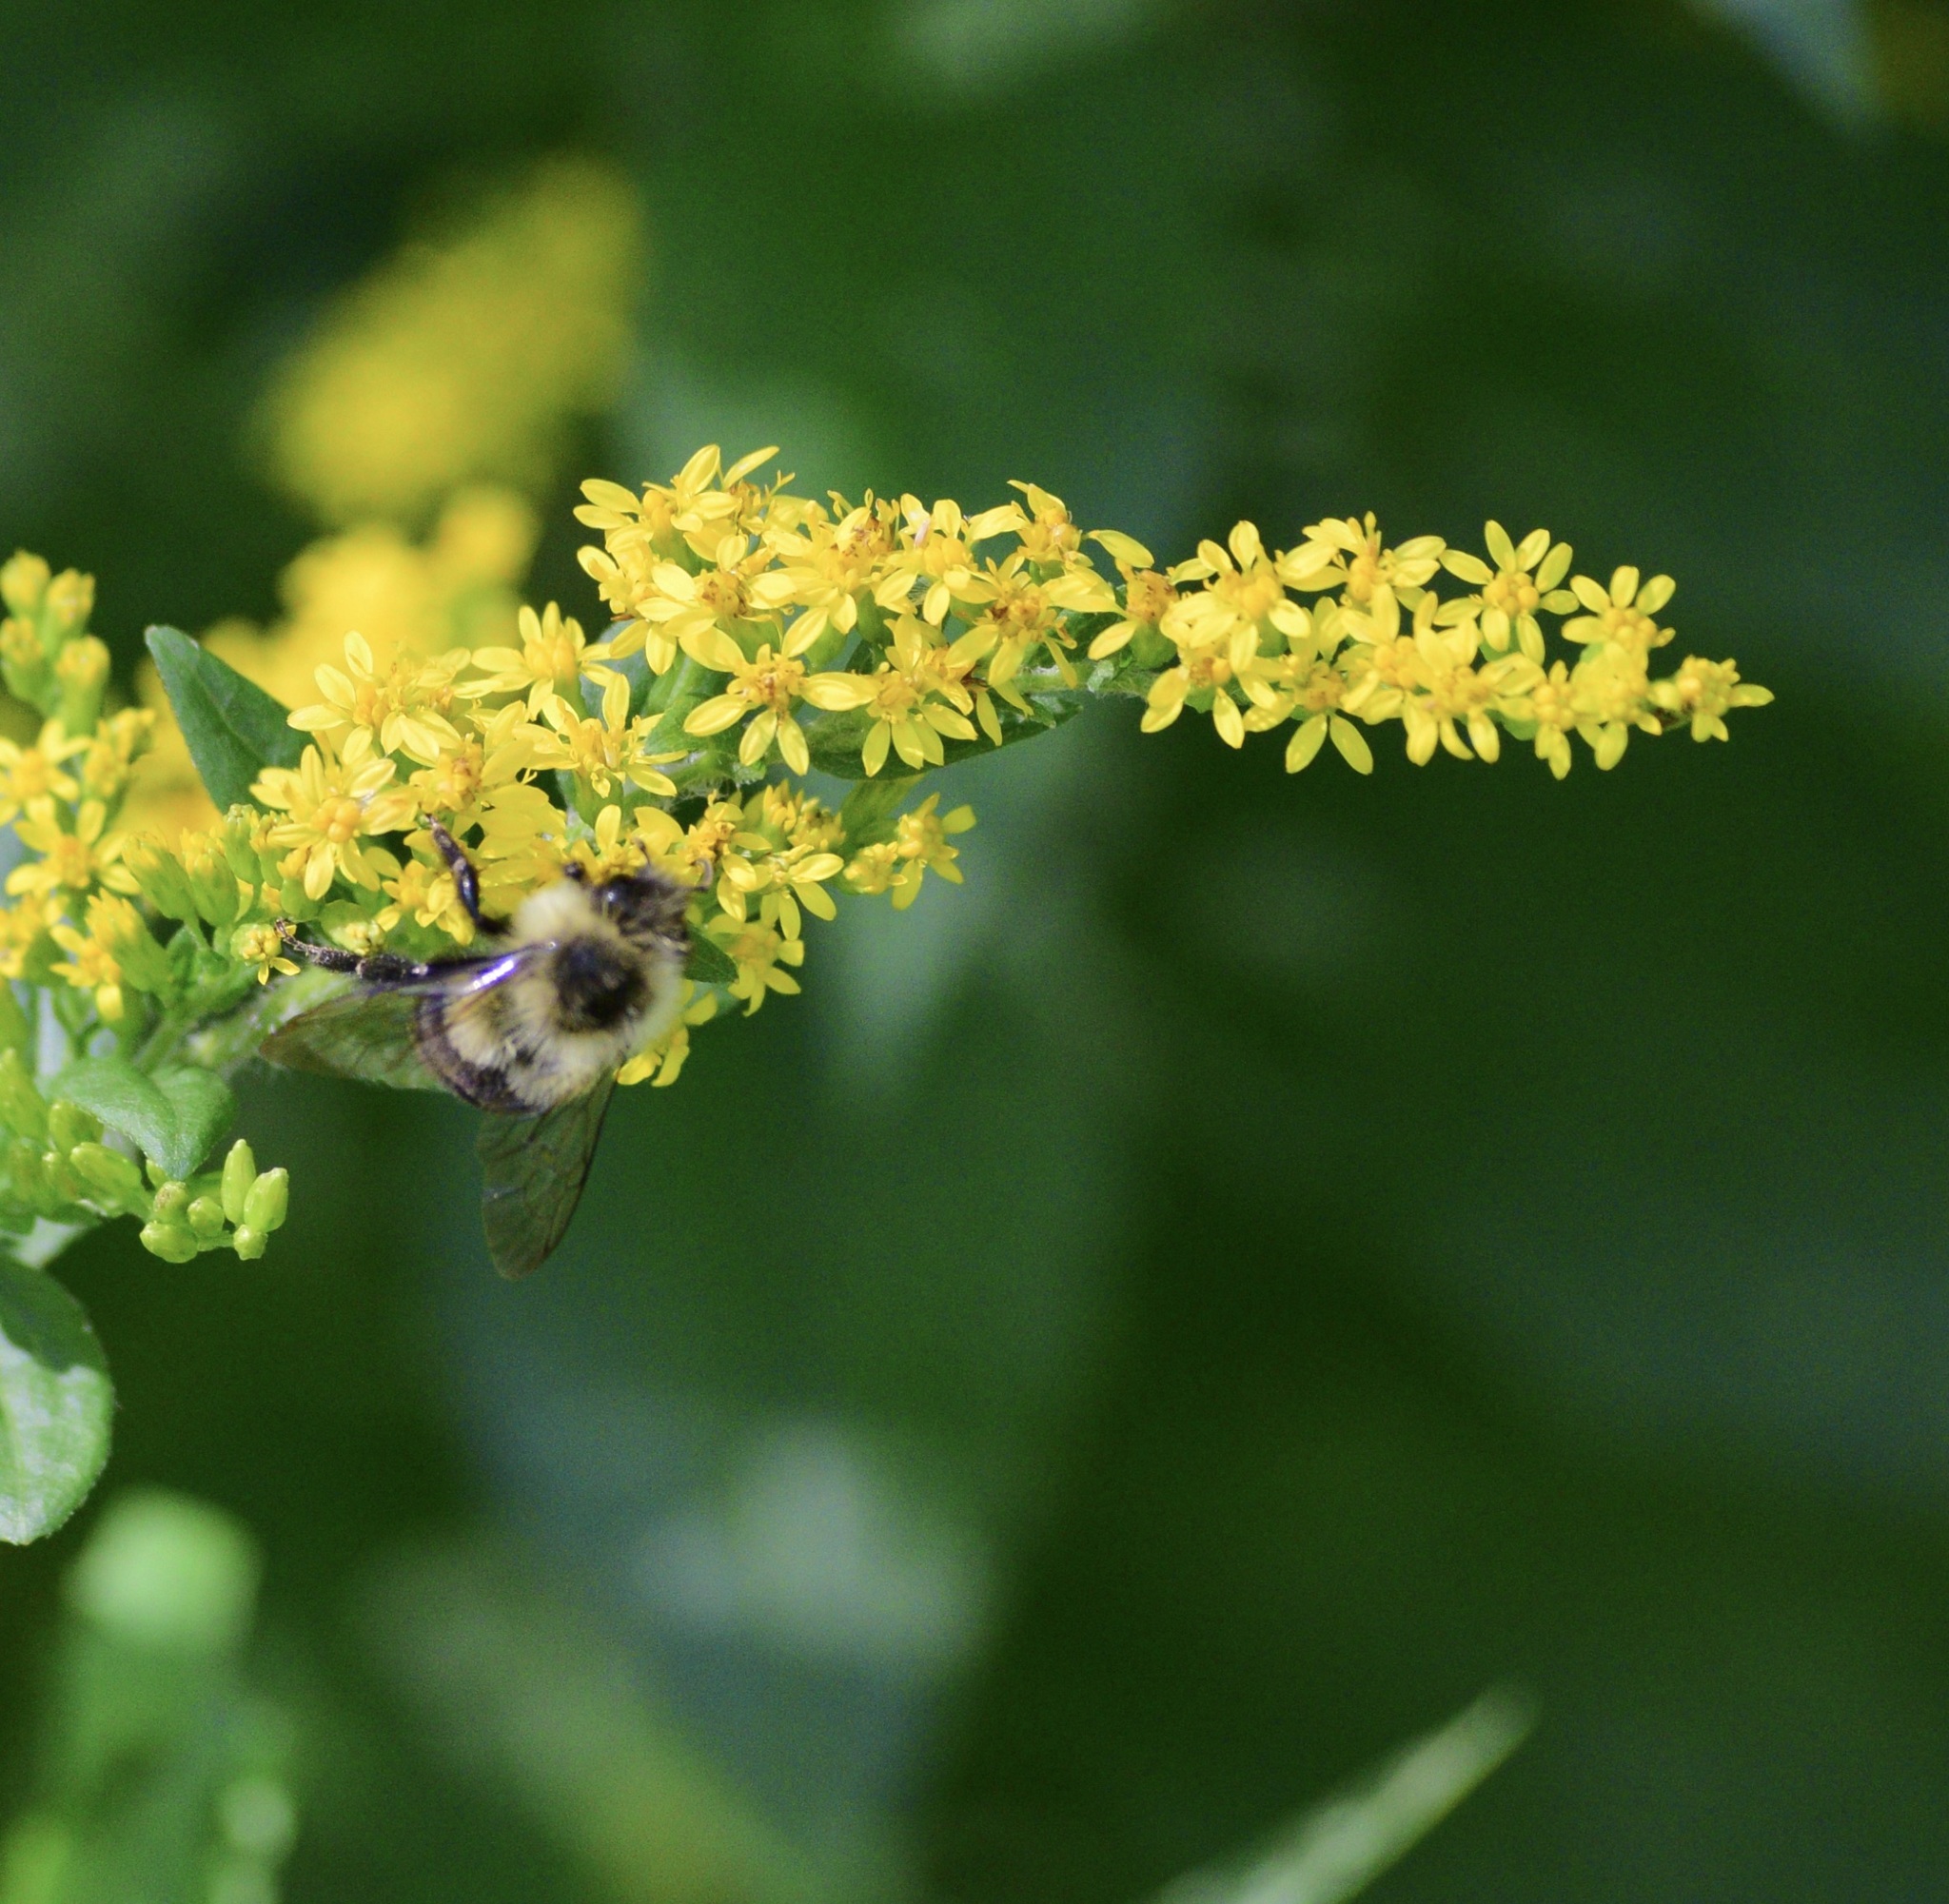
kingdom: Animalia
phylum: Arthropoda
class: Insecta
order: Hymenoptera
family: Apidae
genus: Bombus
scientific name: Bombus impatiens
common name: Common eastern bumble bee
